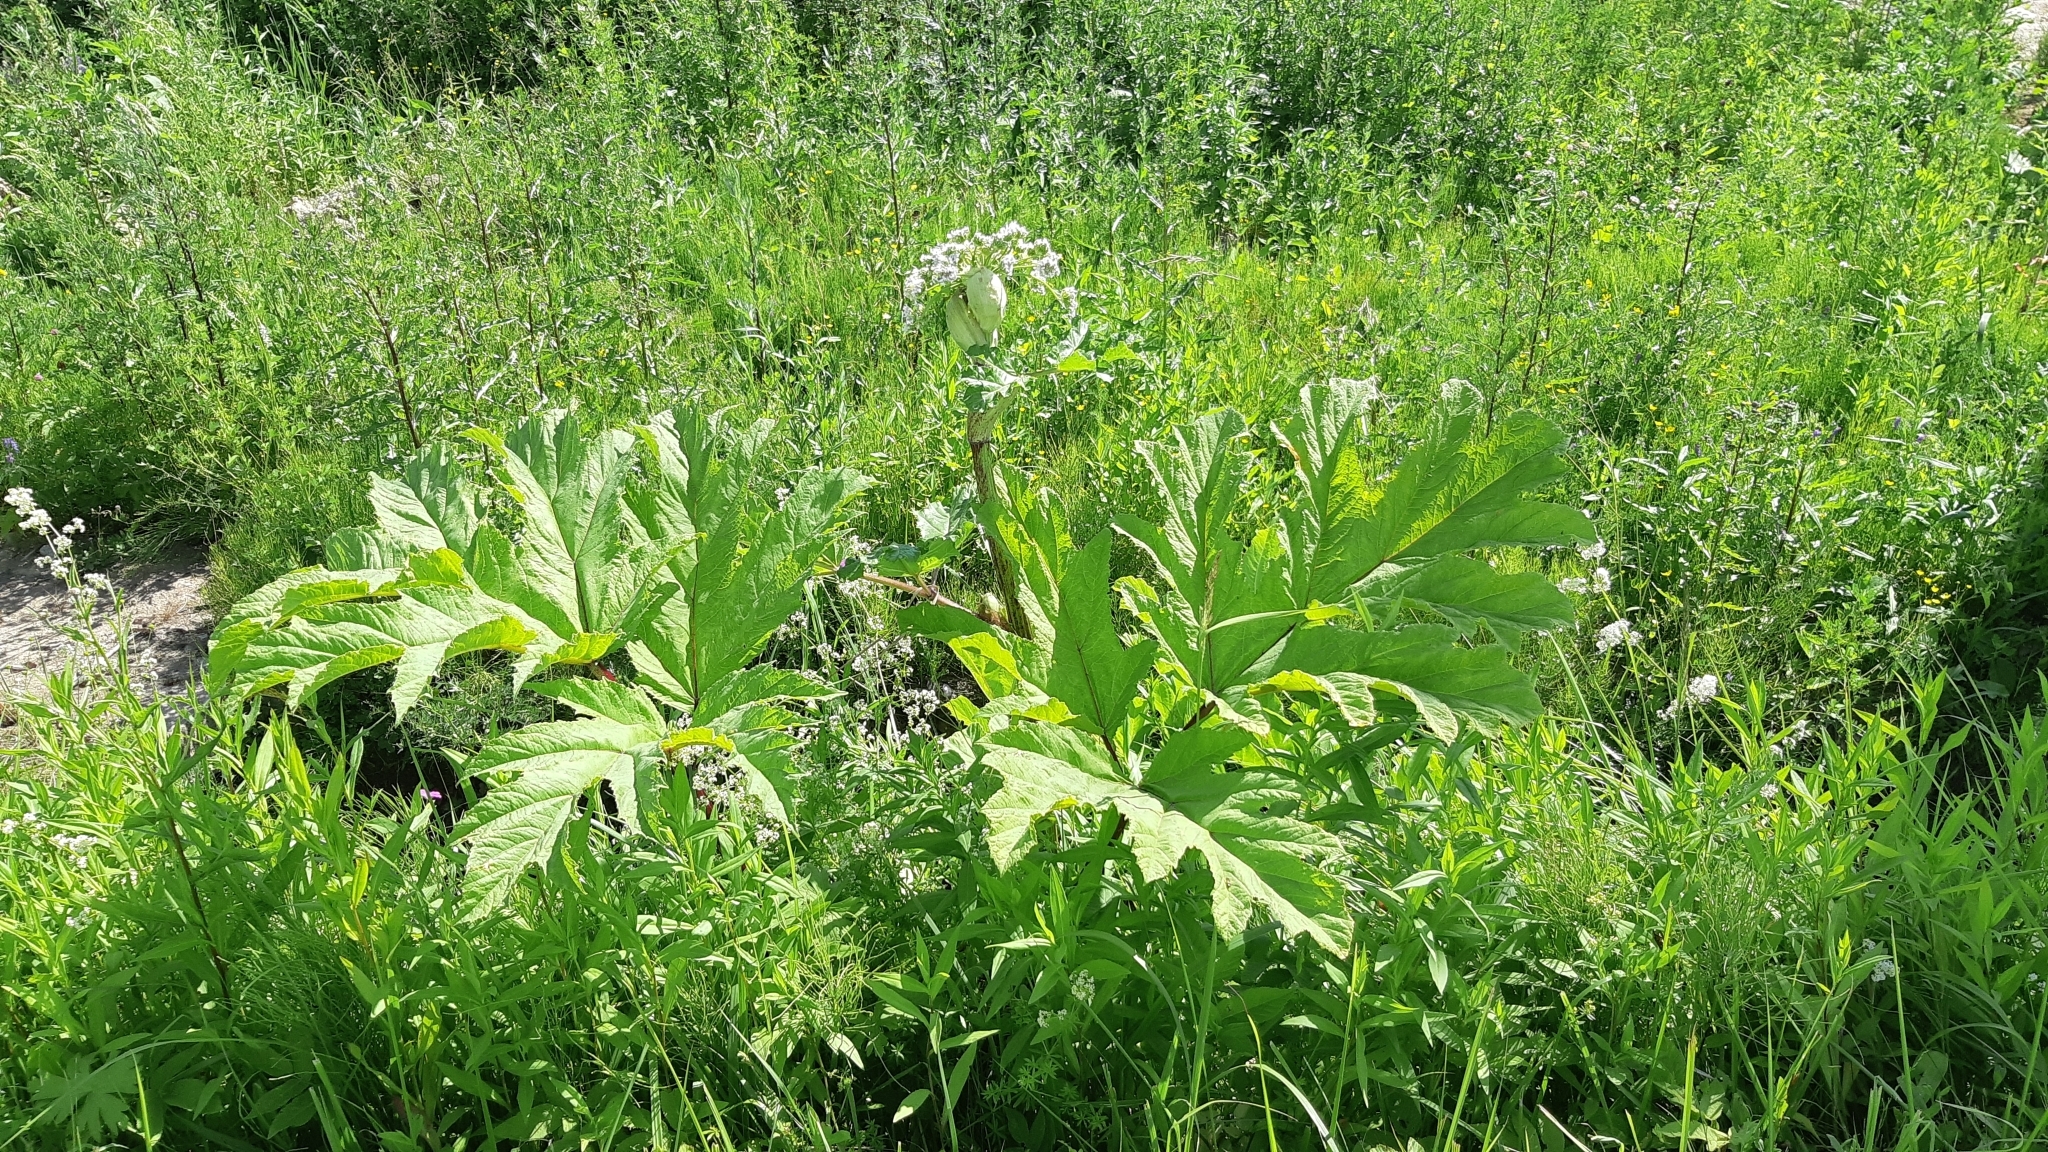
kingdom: Plantae
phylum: Tracheophyta
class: Magnoliopsida
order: Apiales
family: Apiaceae
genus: Heracleum
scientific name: Heracleum sosnowskyi
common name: Sosnowsky's hogweed
